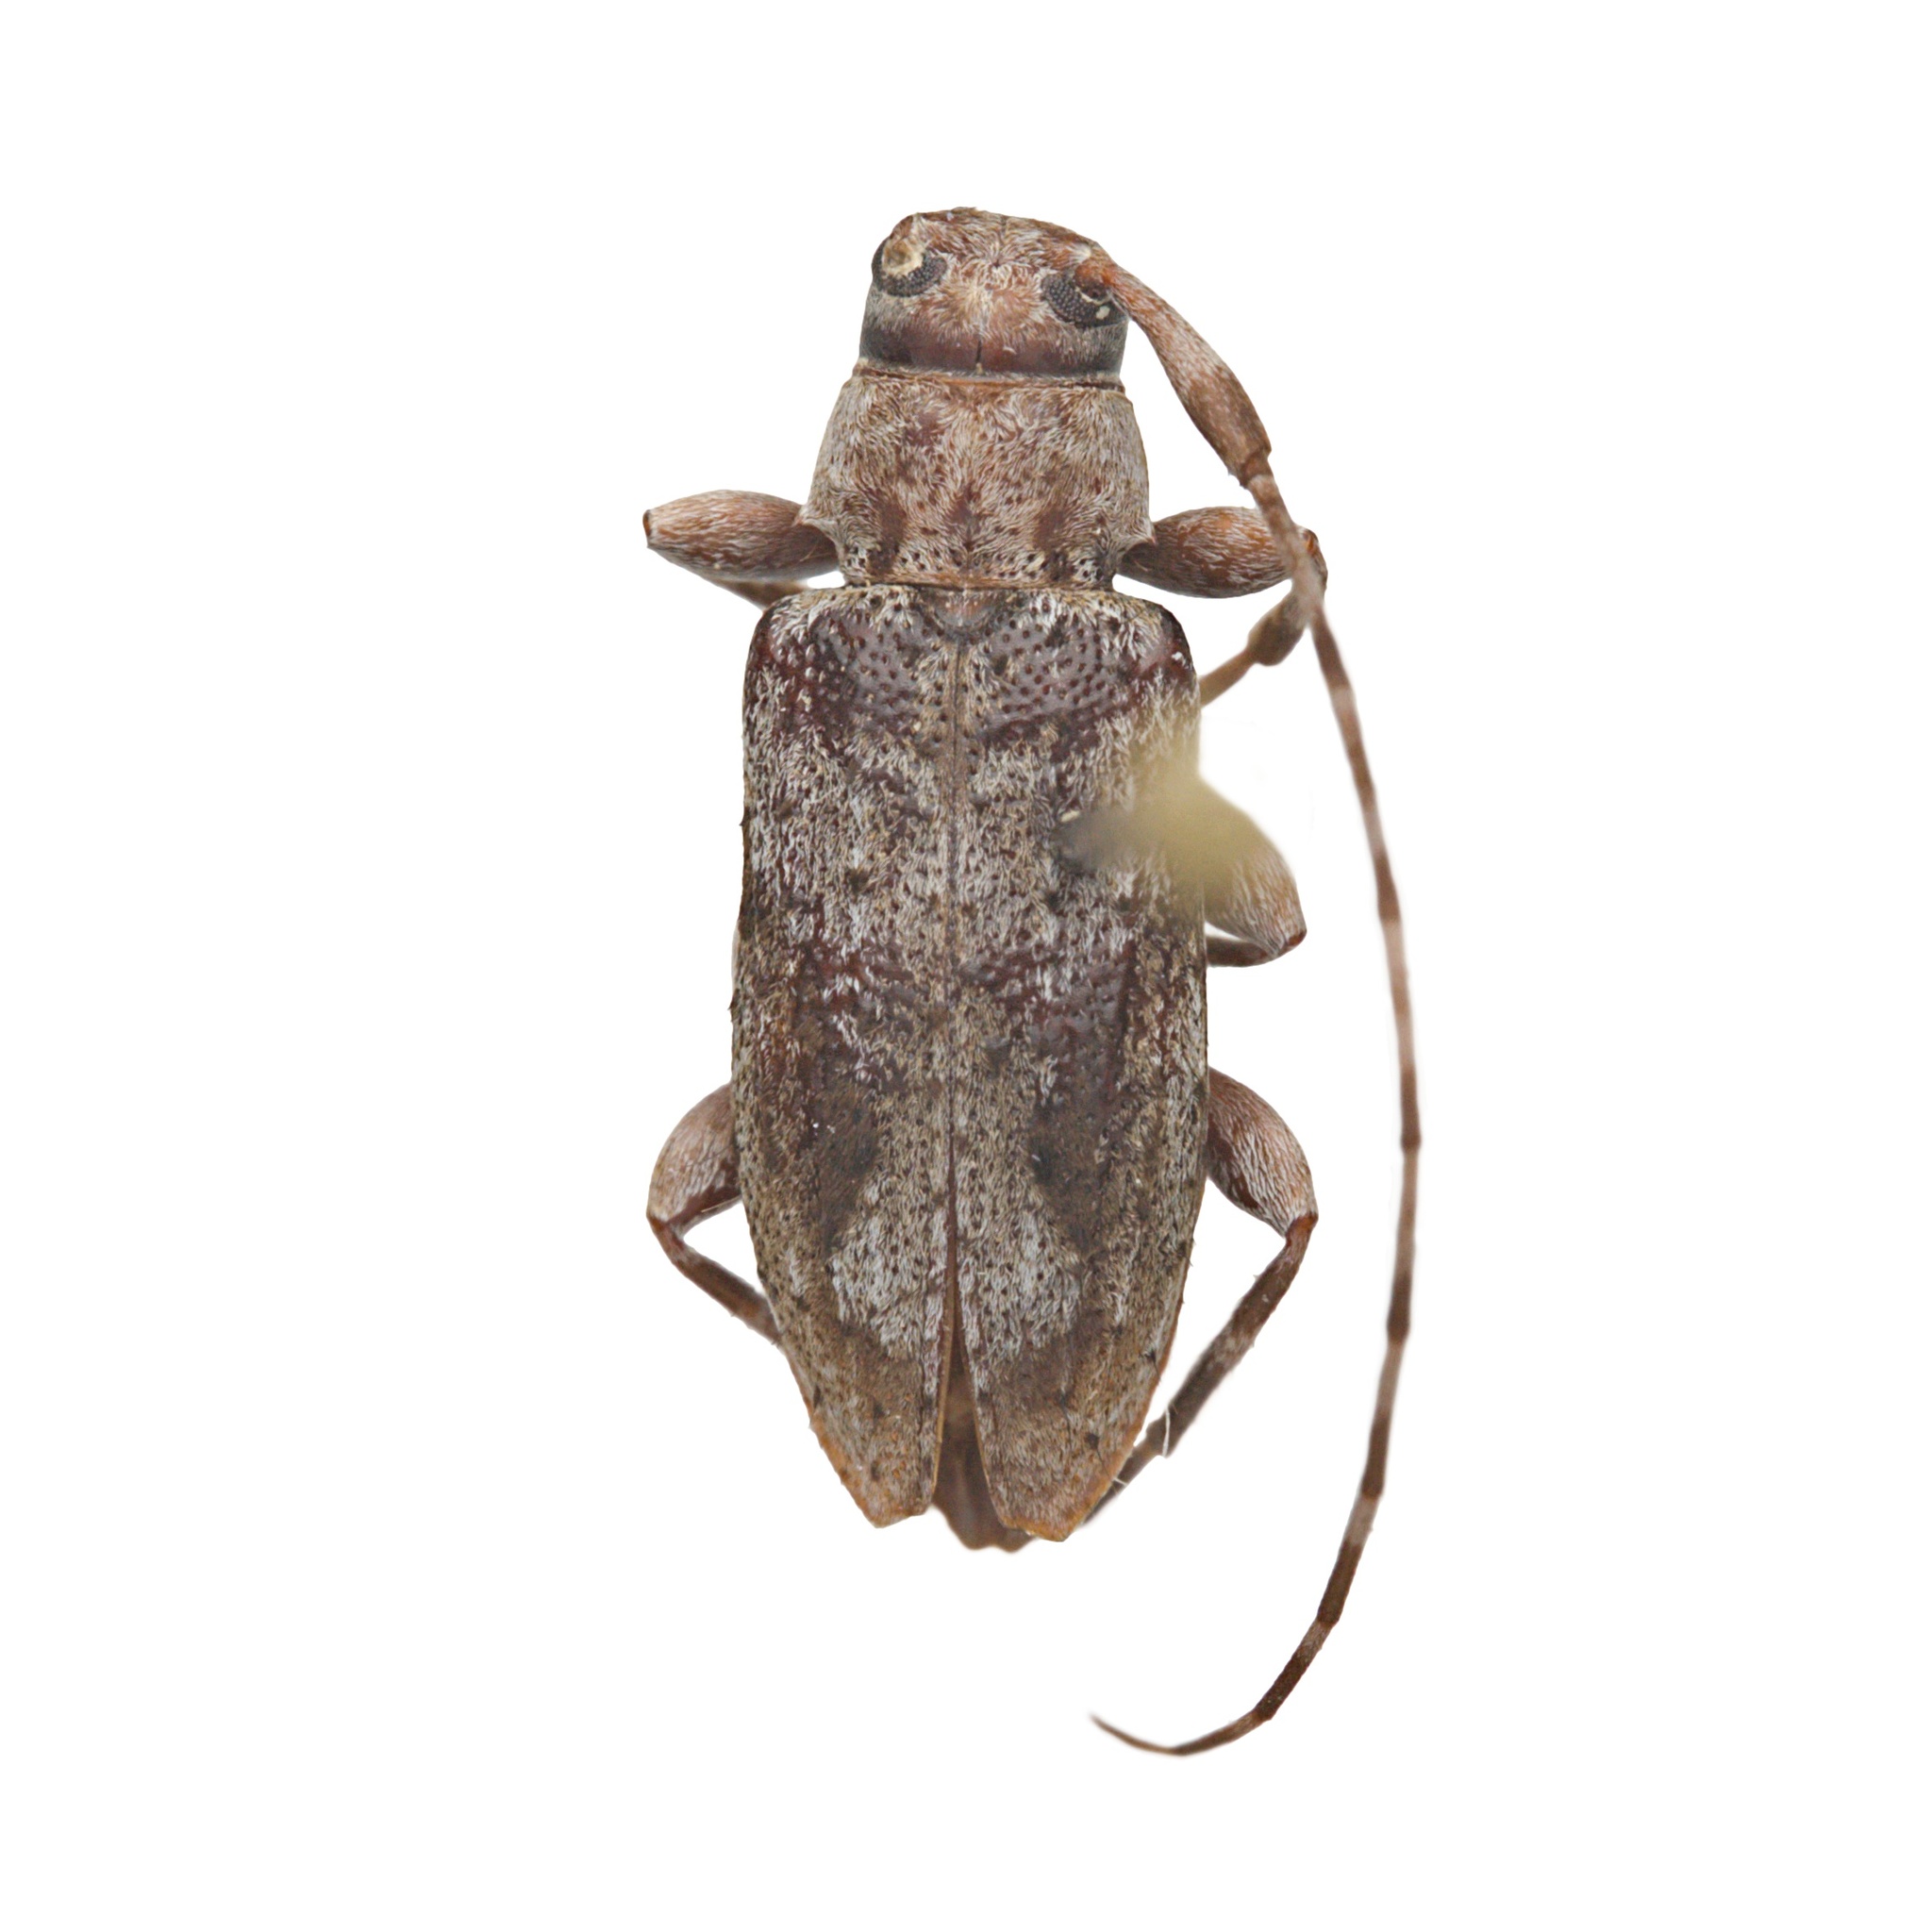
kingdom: Animalia
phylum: Arthropoda
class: Insecta
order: Coleoptera
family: Cerambycidae
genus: Eutrichillus
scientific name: Eutrichillus canescens
